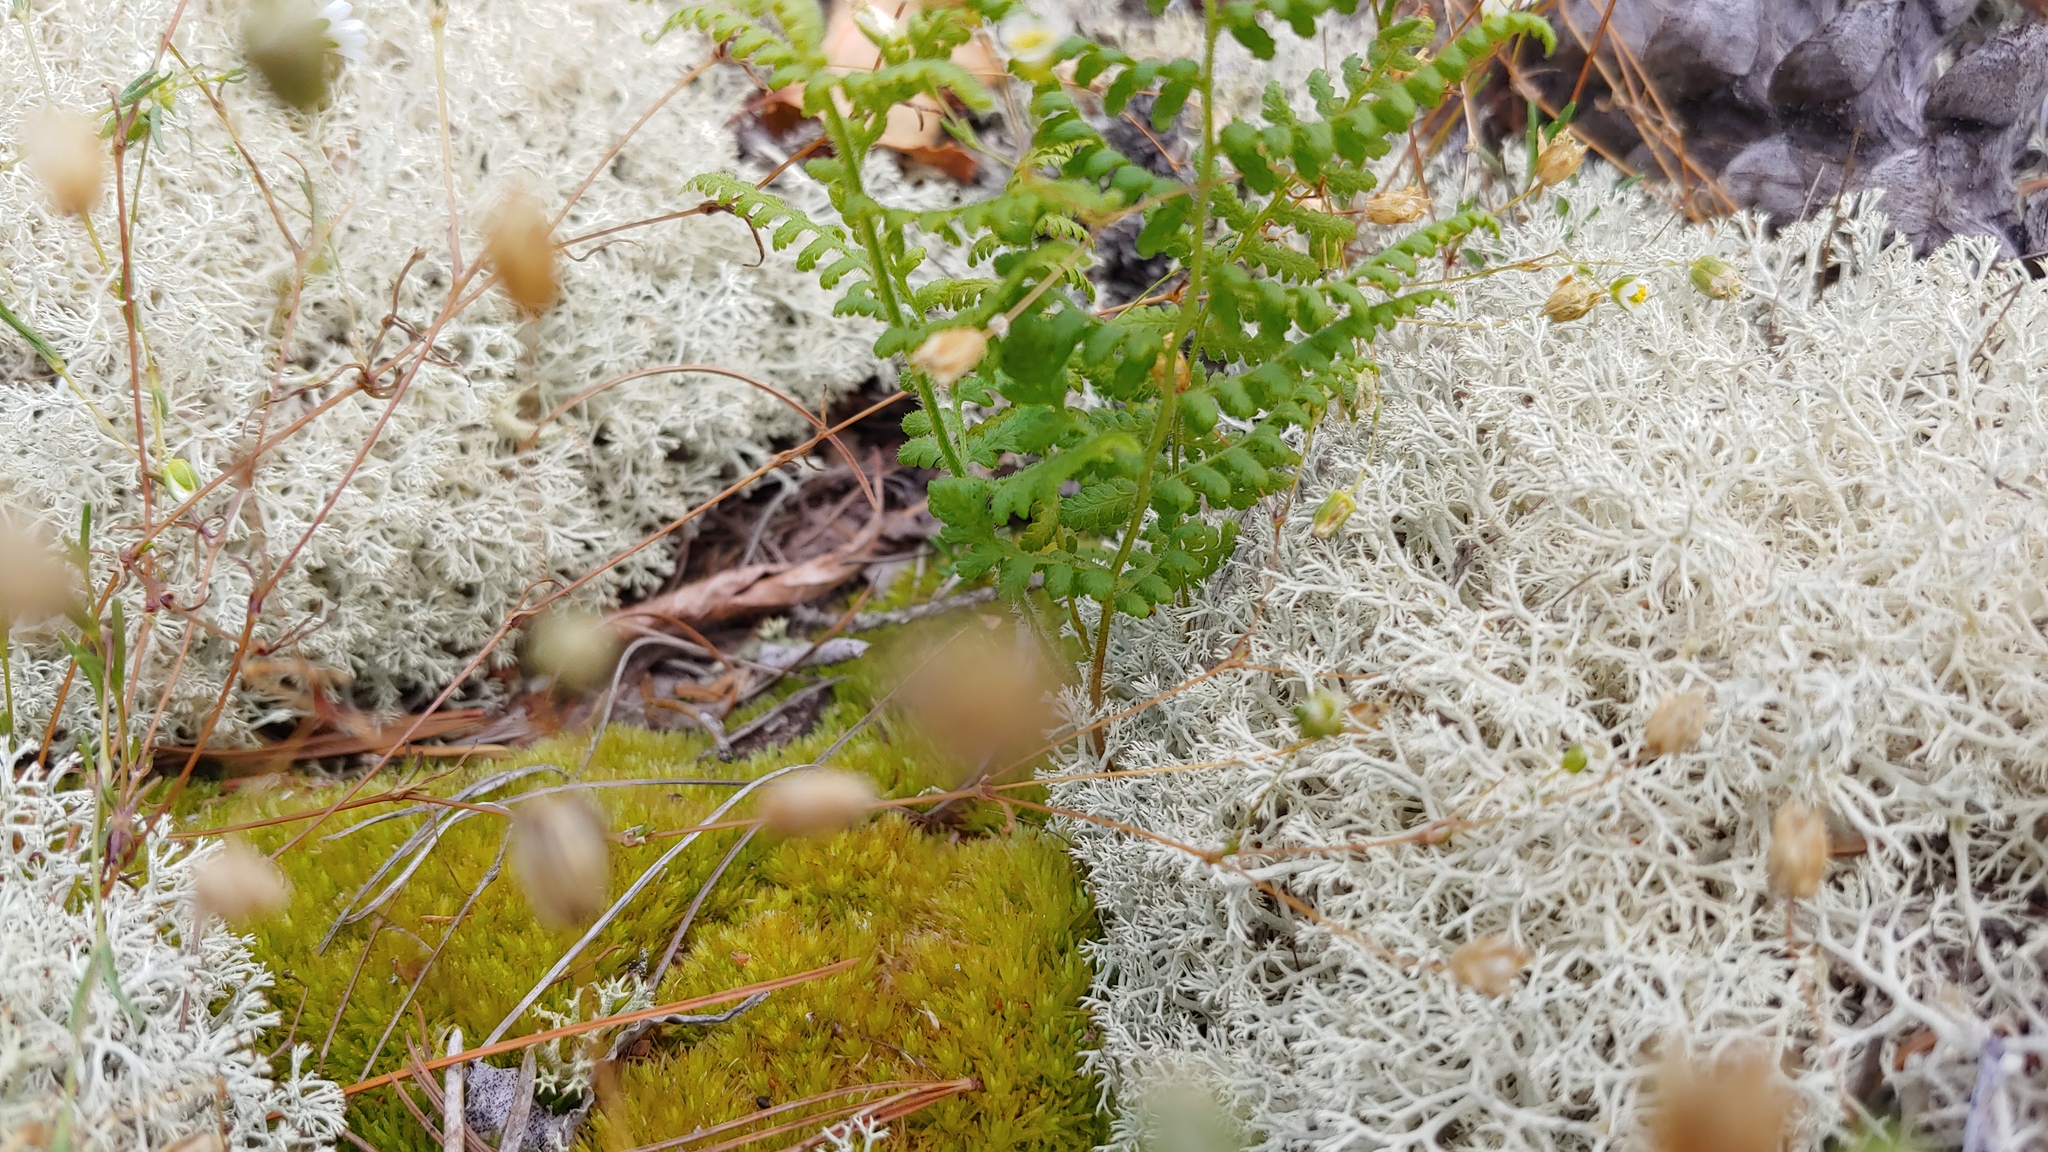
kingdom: Plantae
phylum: Tracheophyta
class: Polypodiopsida
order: Polypodiales
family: Dennstaedtiaceae
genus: Sitobolium
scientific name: Sitobolium punctilobum
